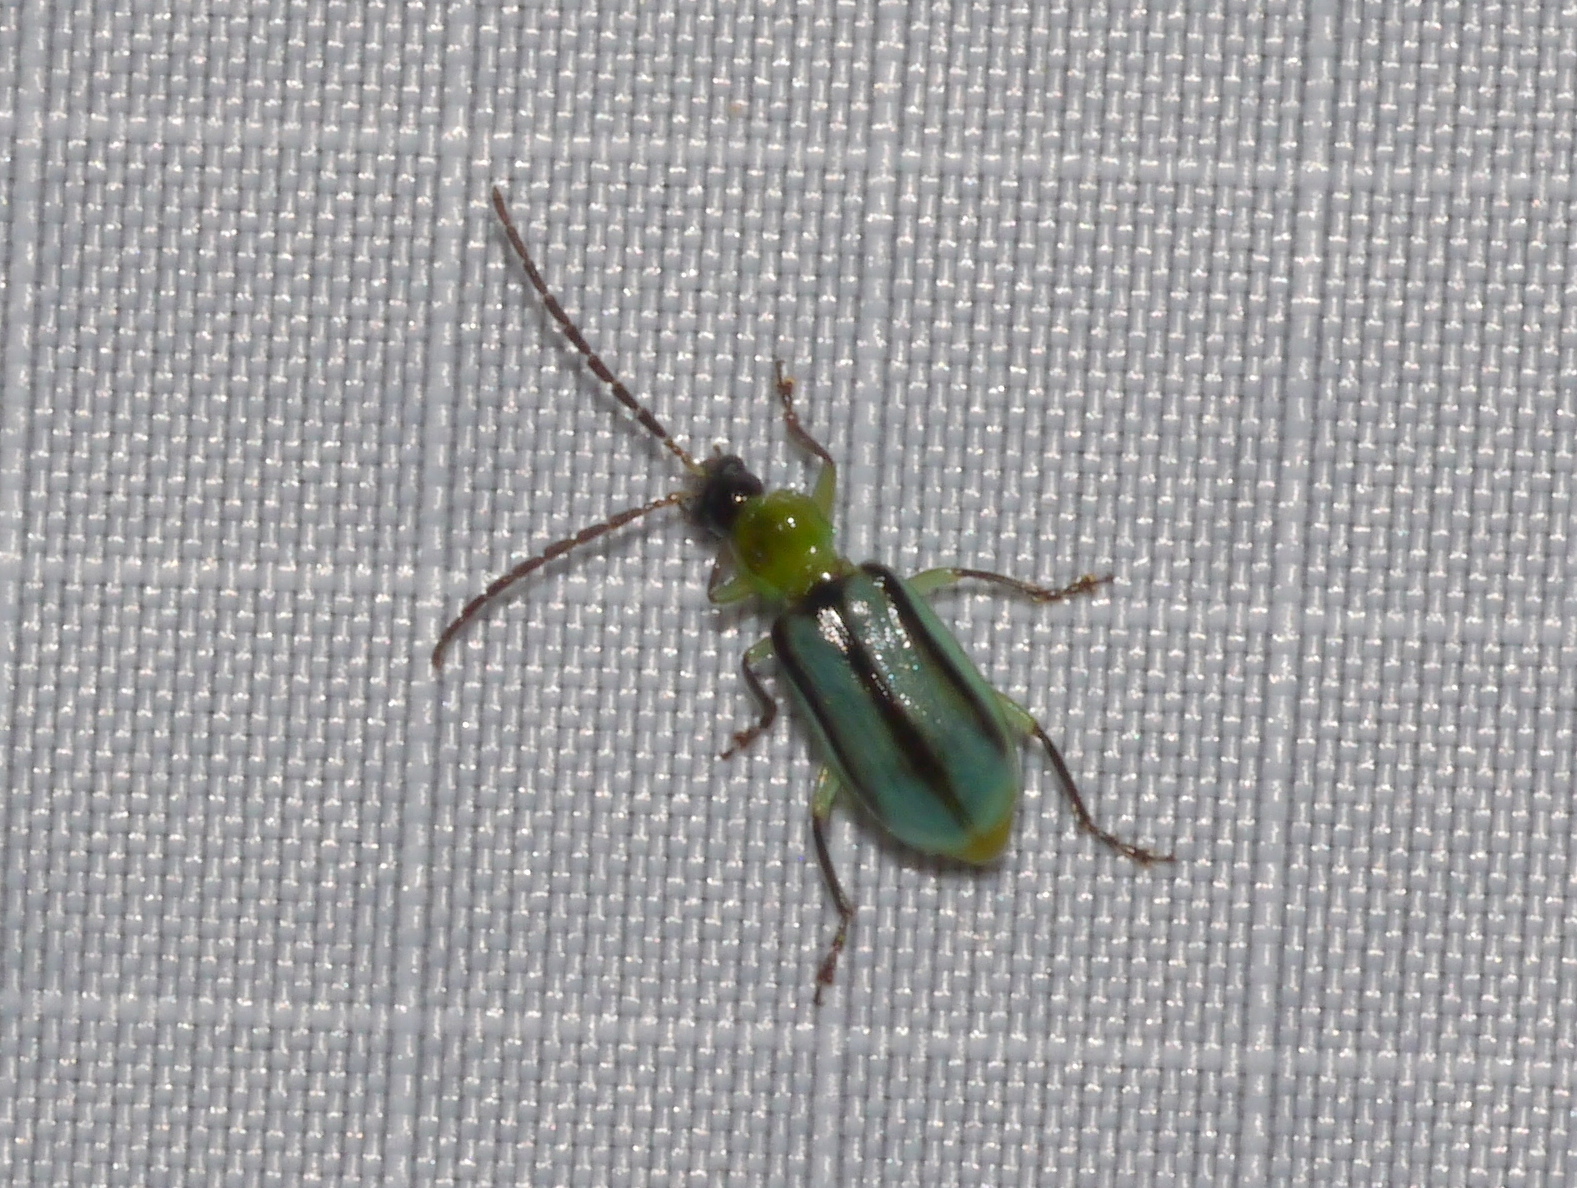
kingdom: Animalia
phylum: Arthropoda
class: Insecta
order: Coleoptera
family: Chrysomelidae
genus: Diabrotica
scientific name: Diabrotica longicornis
